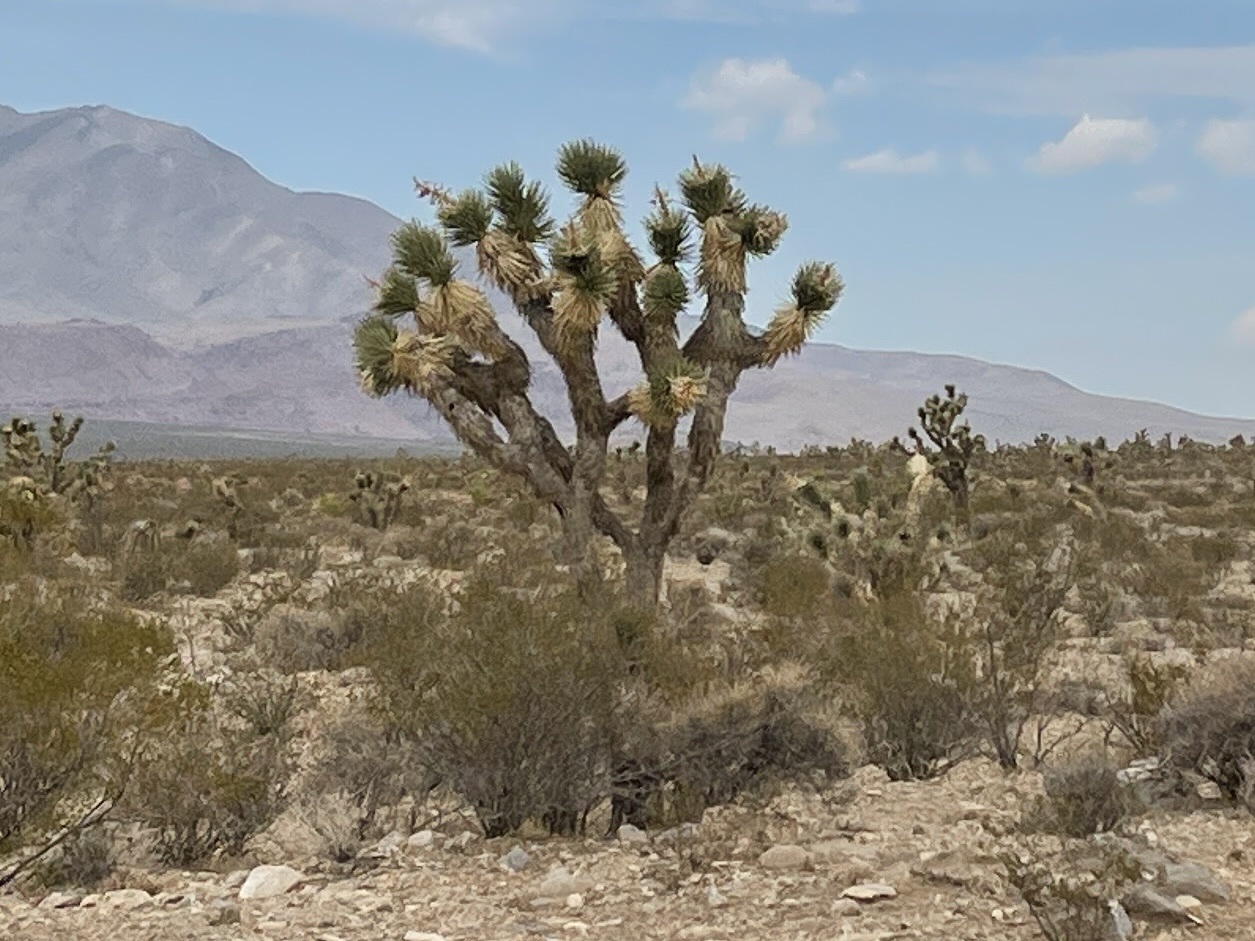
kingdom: Plantae
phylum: Tracheophyta
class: Liliopsida
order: Asparagales
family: Asparagaceae
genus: Yucca
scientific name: Yucca brevifolia
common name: Joshua tree
